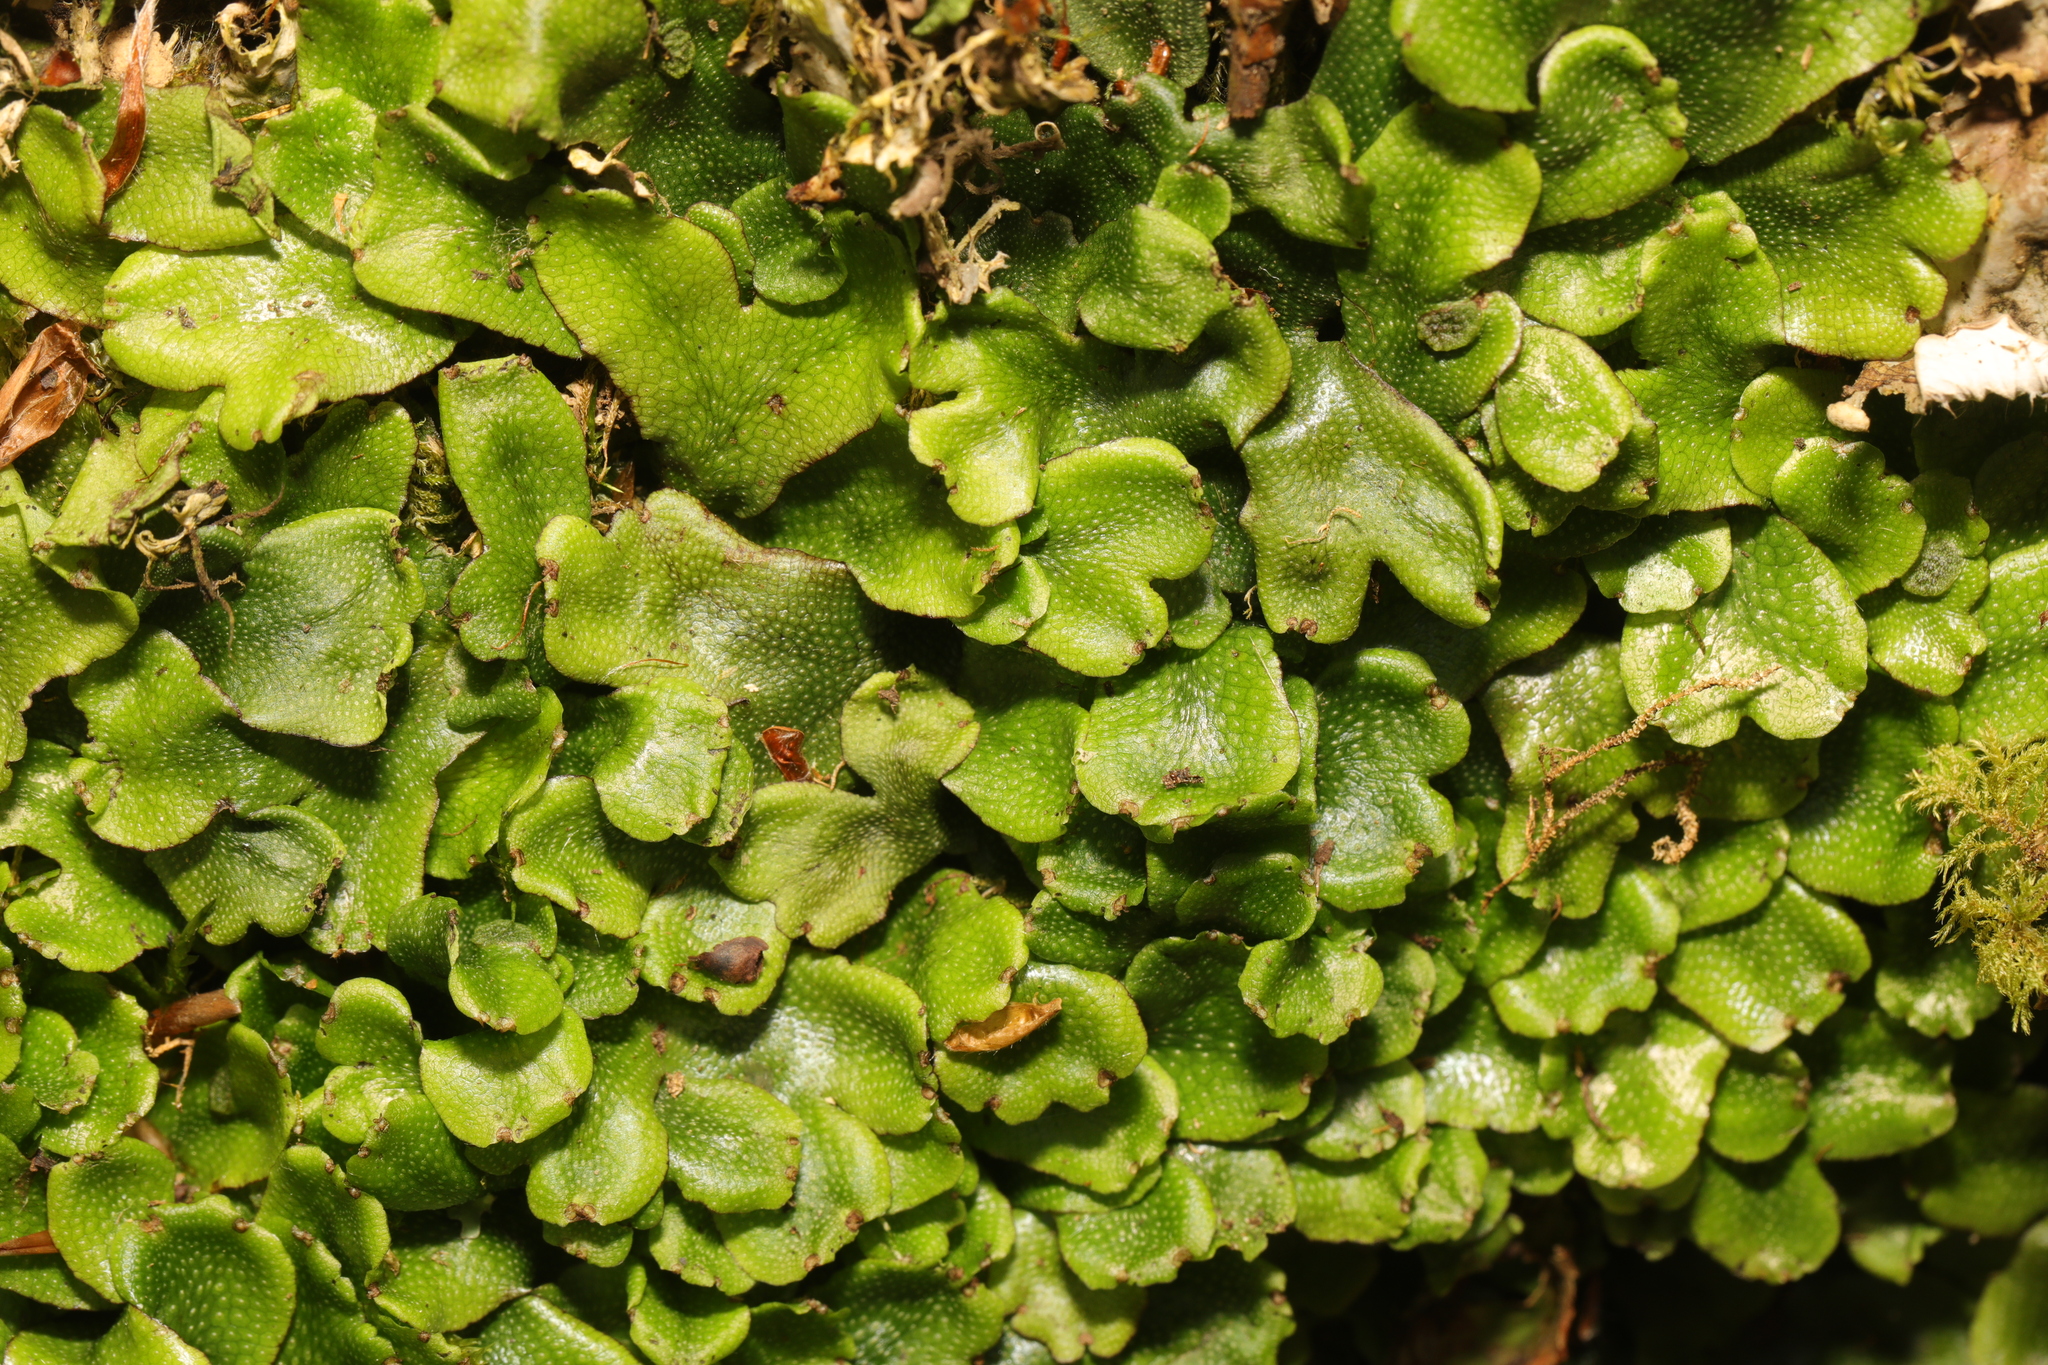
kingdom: Plantae
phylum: Marchantiophyta
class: Marchantiopsida
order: Marchantiales
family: Conocephalaceae
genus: Conocephalum
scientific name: Conocephalum conicum
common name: Great scented liverwort
